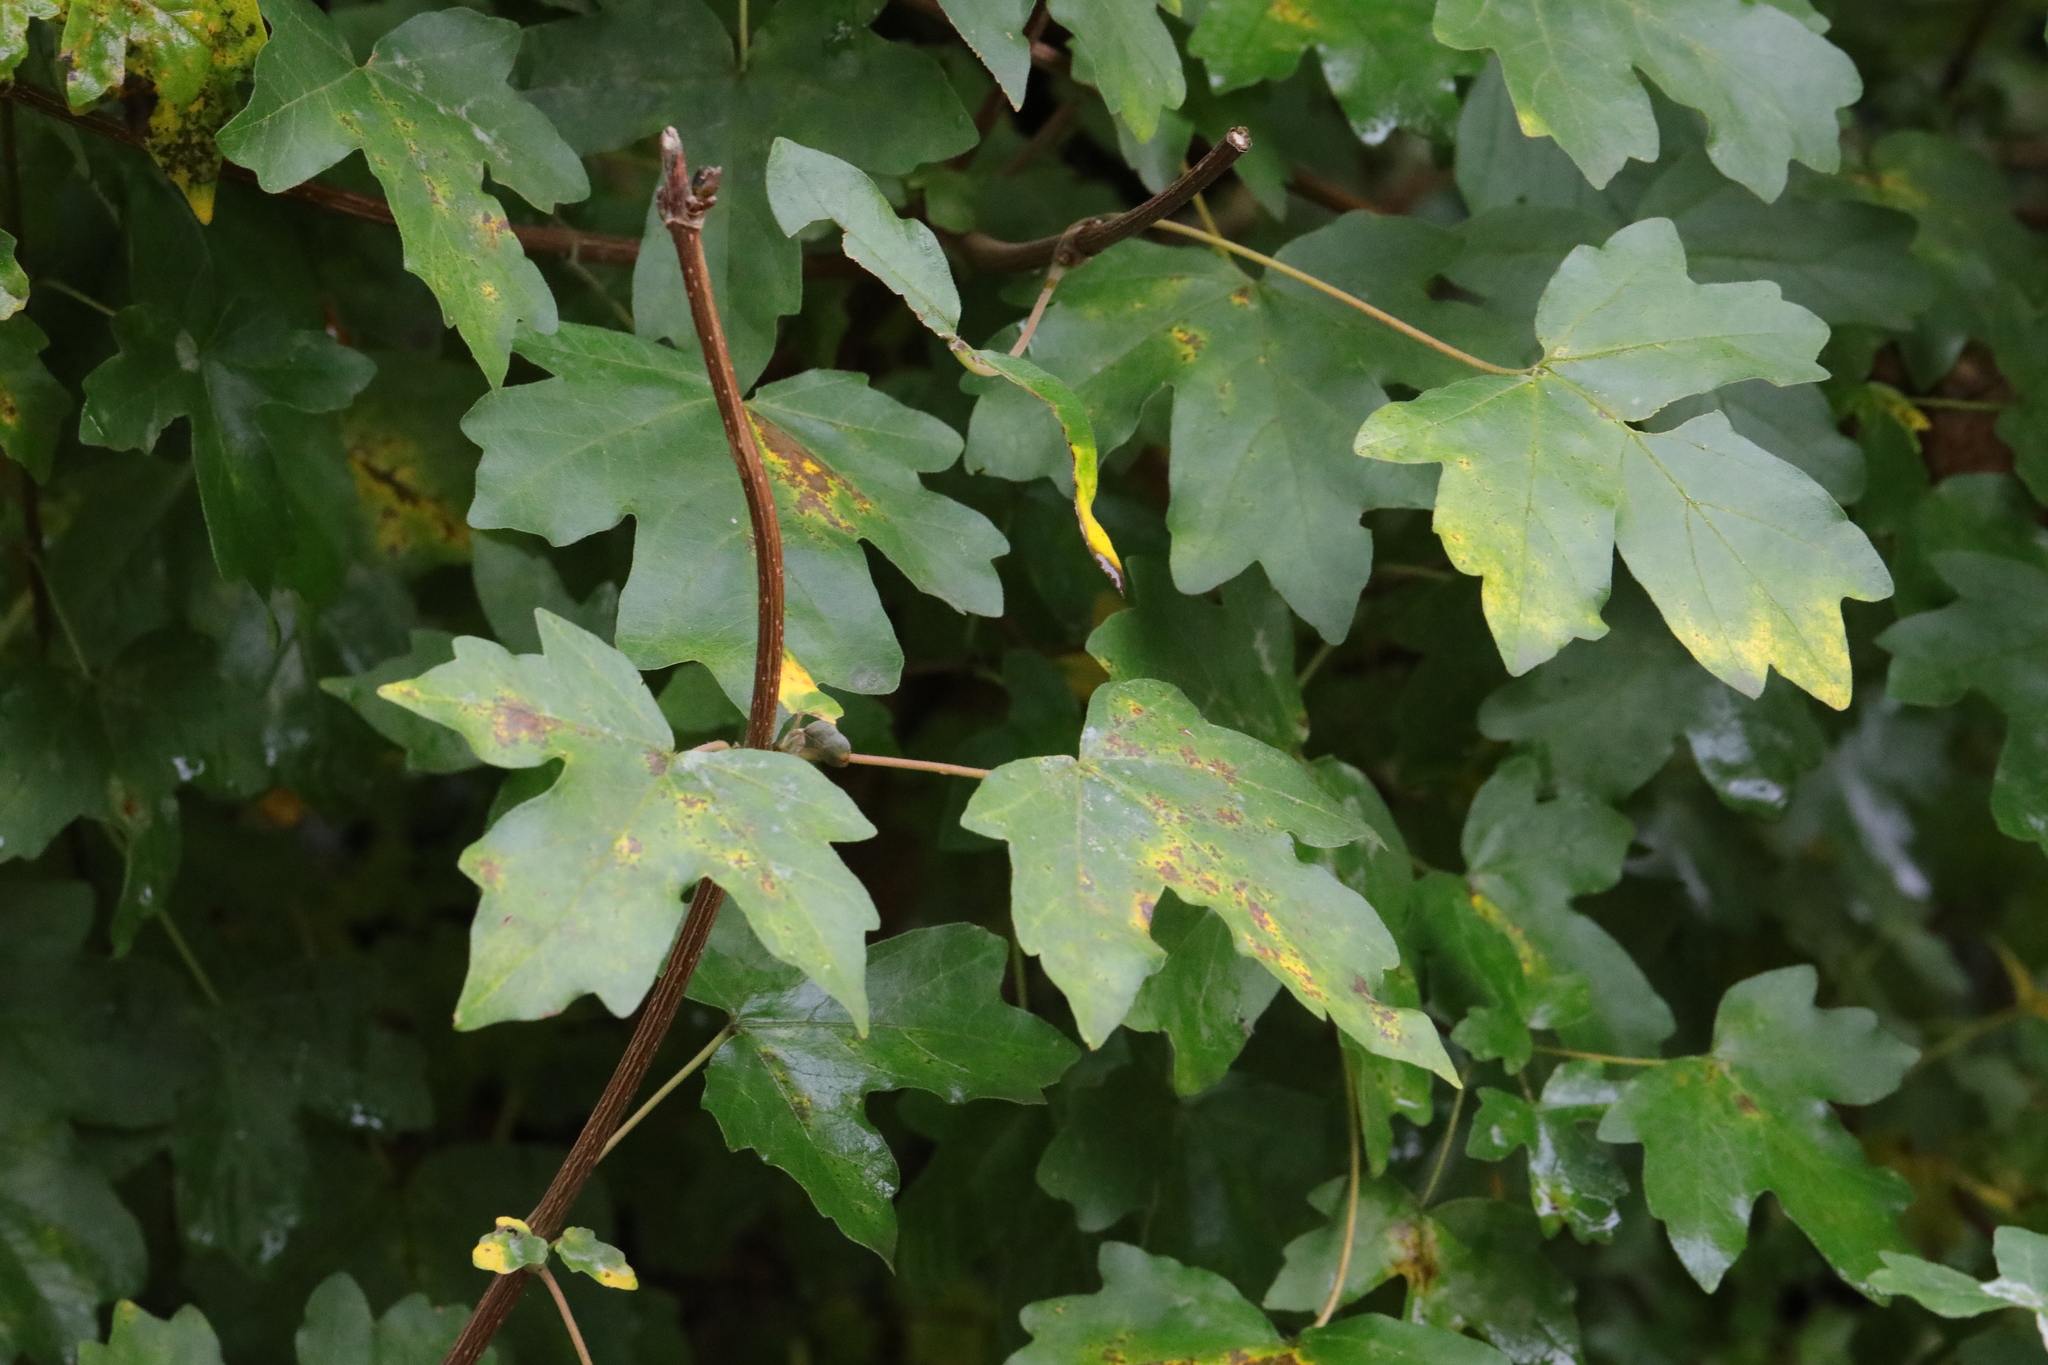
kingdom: Plantae
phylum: Tracheophyta
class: Magnoliopsida
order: Sapindales
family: Sapindaceae
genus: Acer
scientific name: Acer campestre
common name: Field maple
